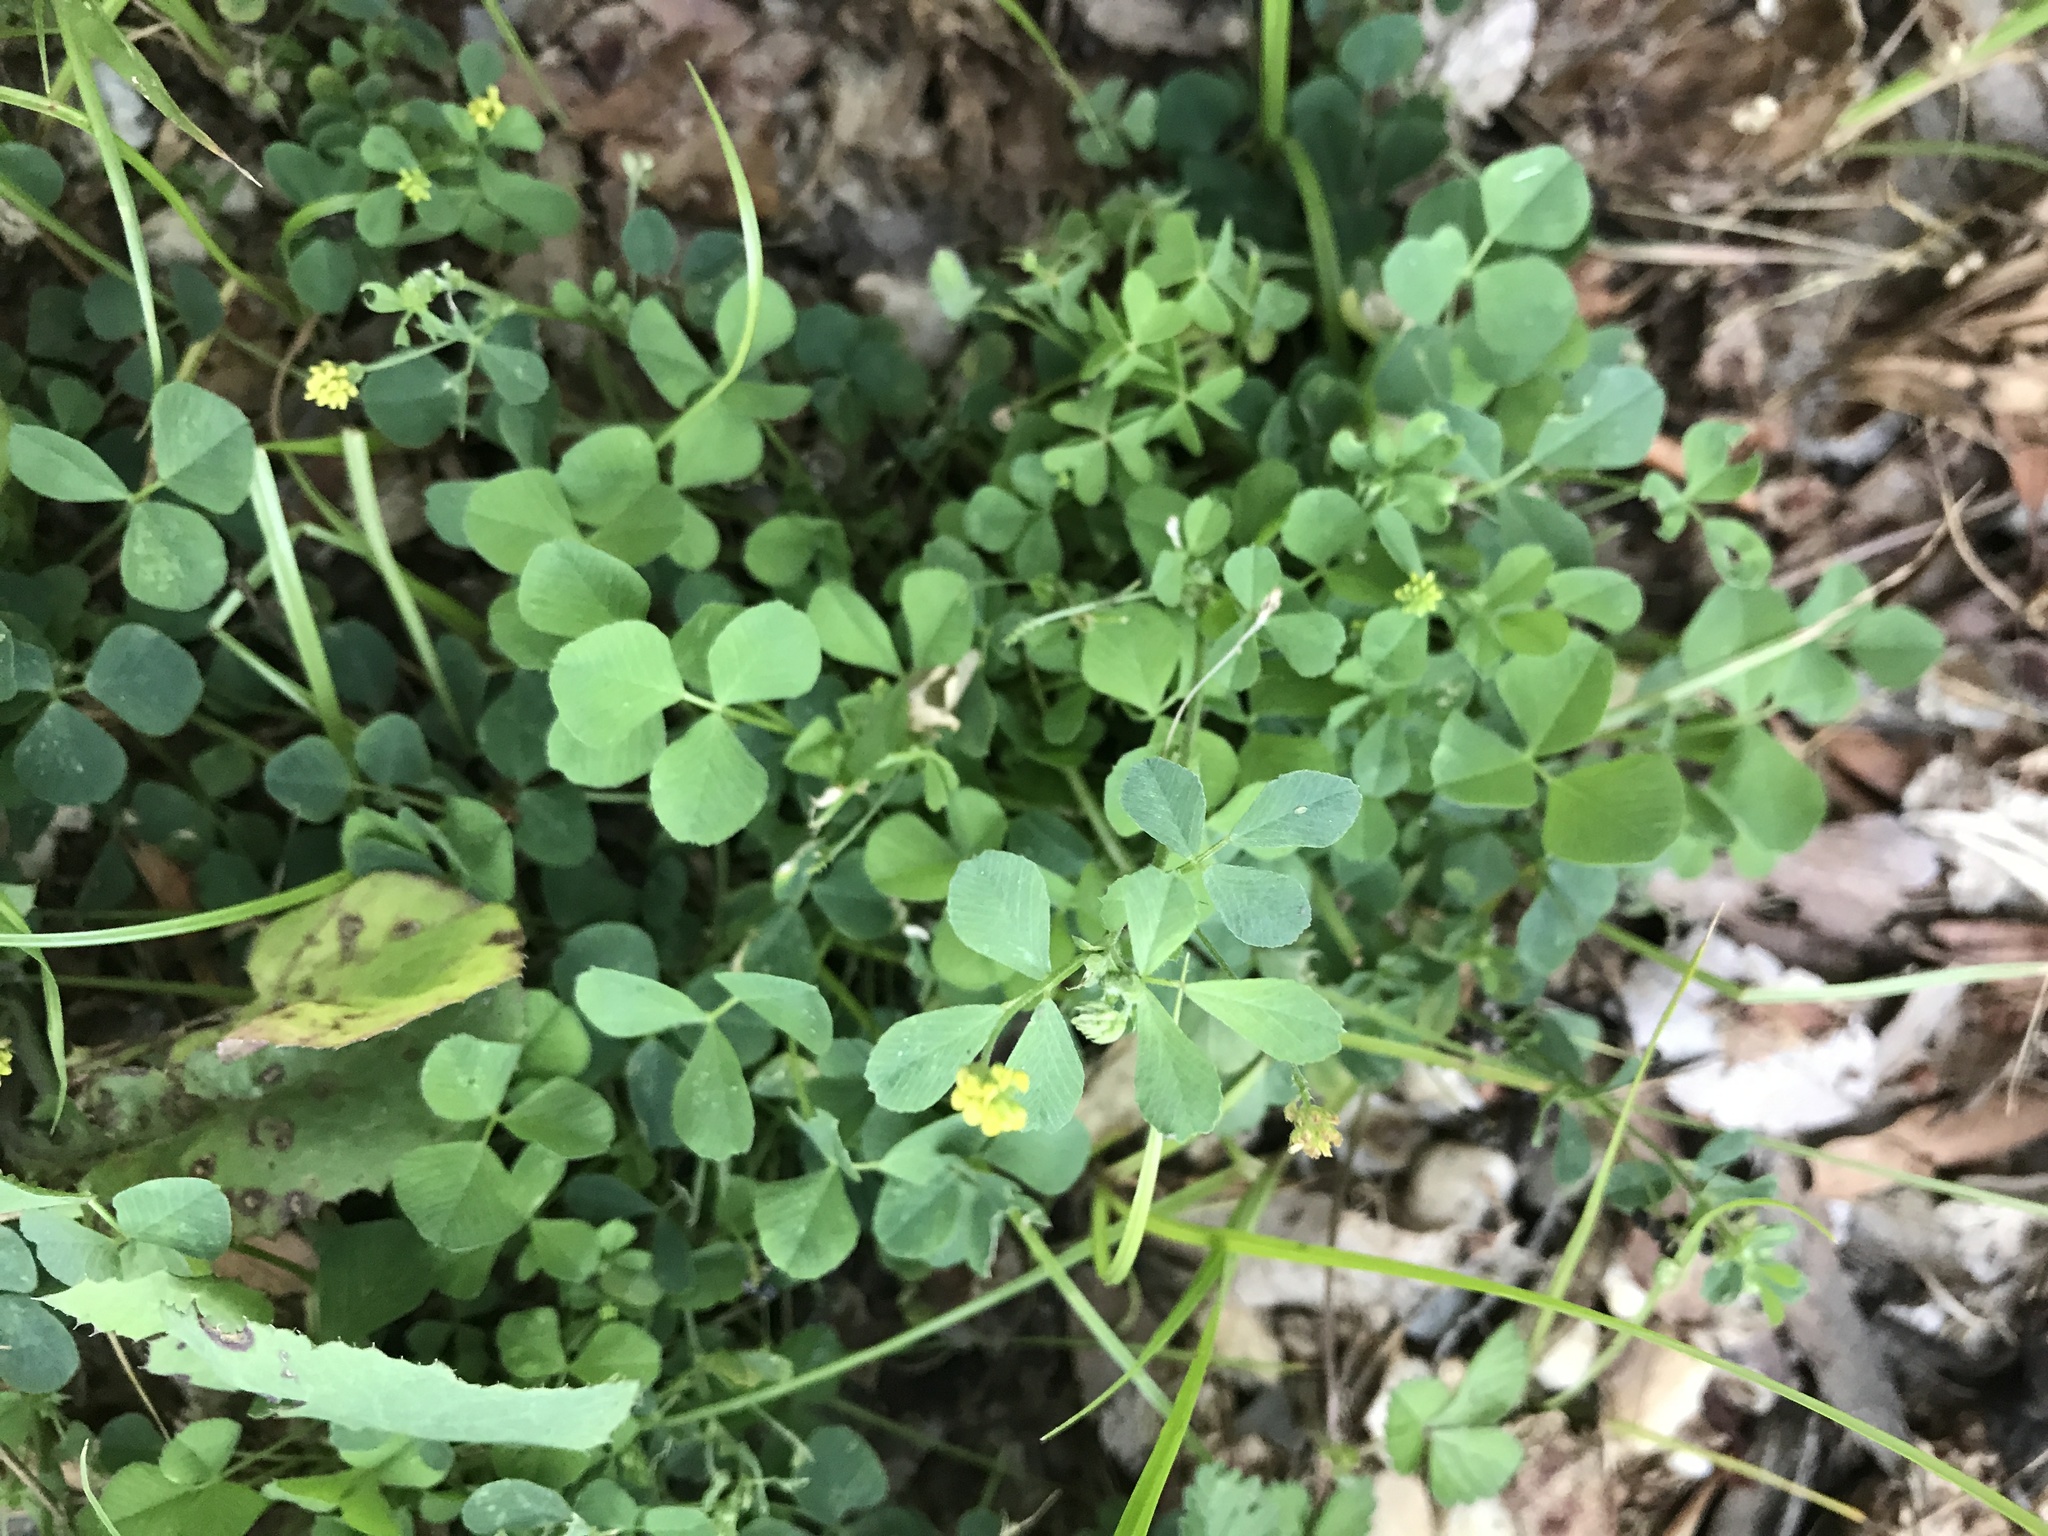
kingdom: Plantae
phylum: Tracheophyta
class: Magnoliopsida
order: Fabales
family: Fabaceae
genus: Medicago
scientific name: Medicago lupulina
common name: Black medick
